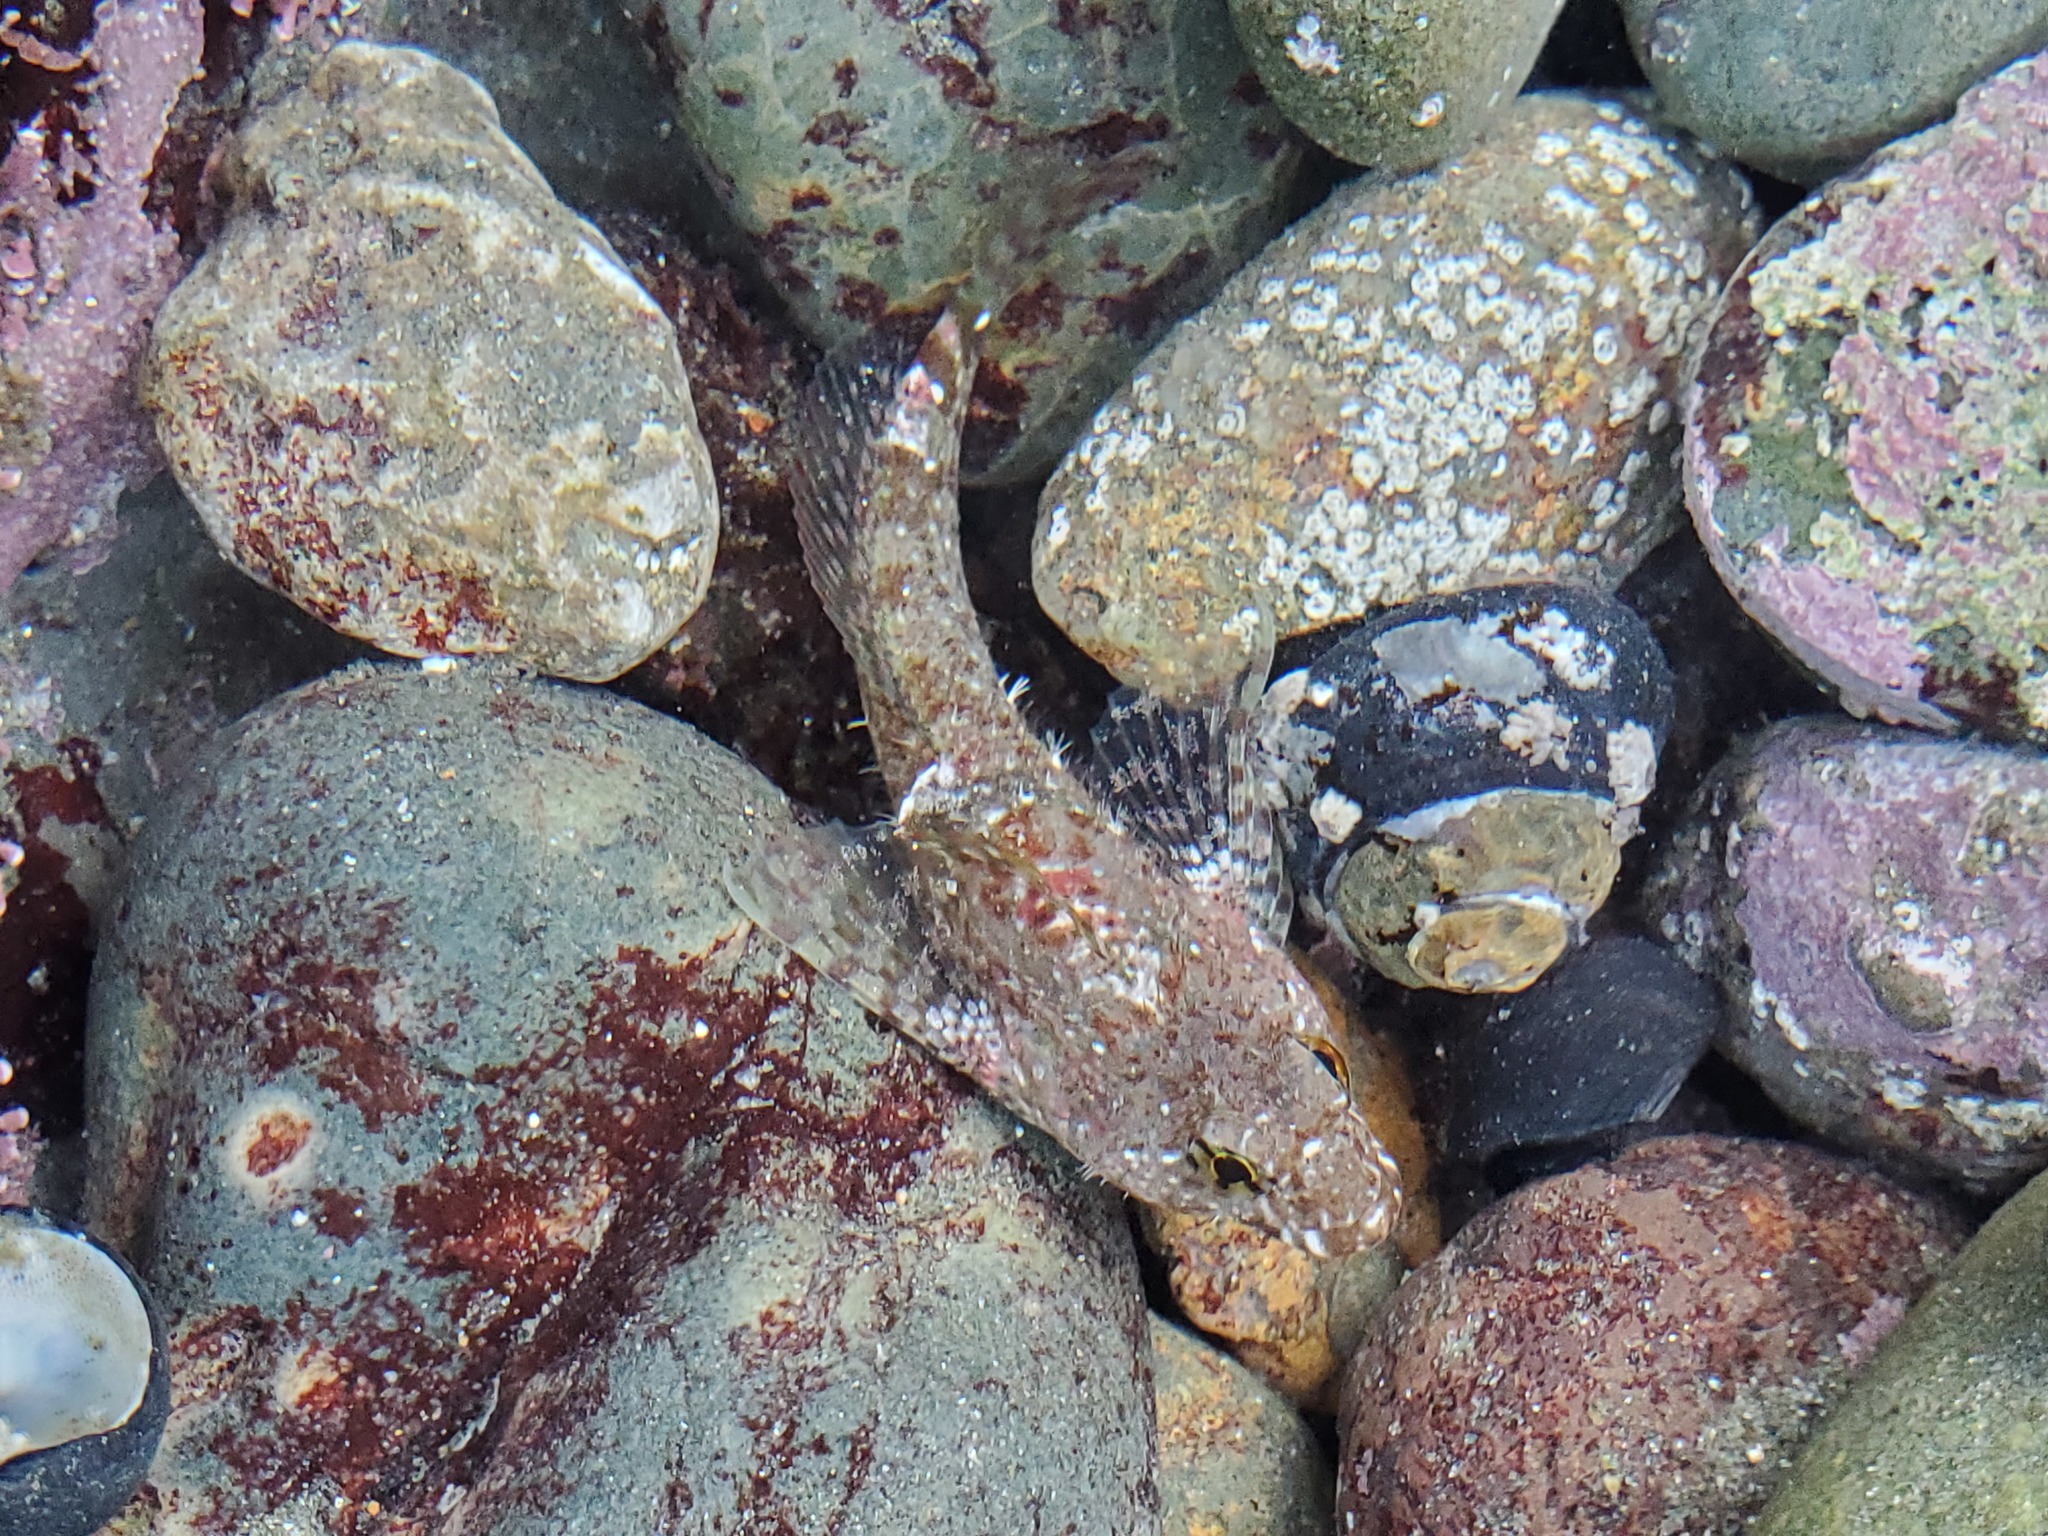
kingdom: Animalia
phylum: Chordata
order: Scorpaeniformes
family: Cottidae
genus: Clinocottus
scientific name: Clinocottus analis
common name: Woolly sculpin
